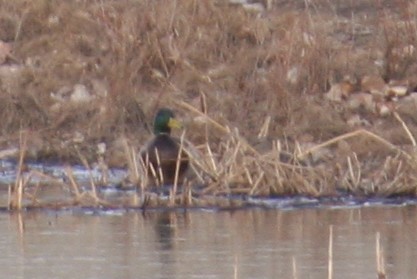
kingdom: Animalia
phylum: Chordata
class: Aves
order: Anseriformes
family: Anatidae
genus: Anas
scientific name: Anas platyrhynchos
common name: Mallard
